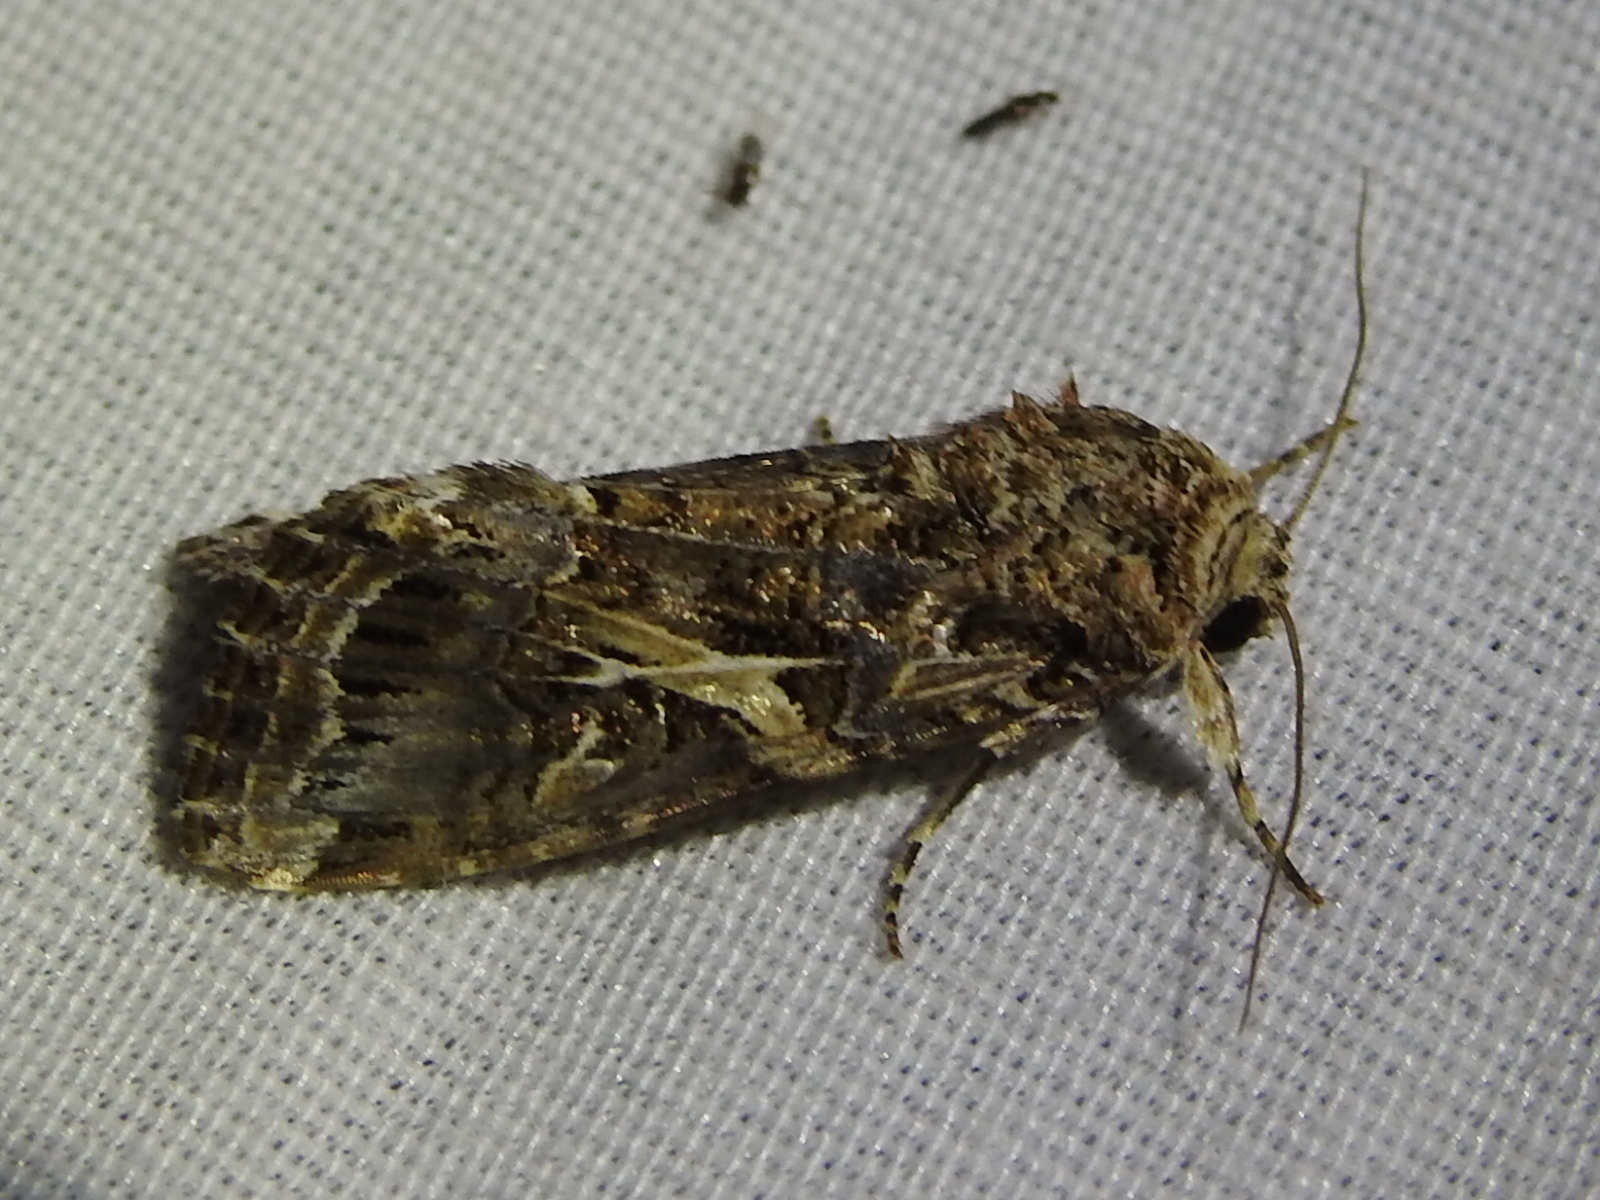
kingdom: Animalia
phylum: Arthropoda
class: Insecta
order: Lepidoptera
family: Noctuidae
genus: Spodoptera
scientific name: Spodoptera ornithogalli
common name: Yellow-striped armyworm
